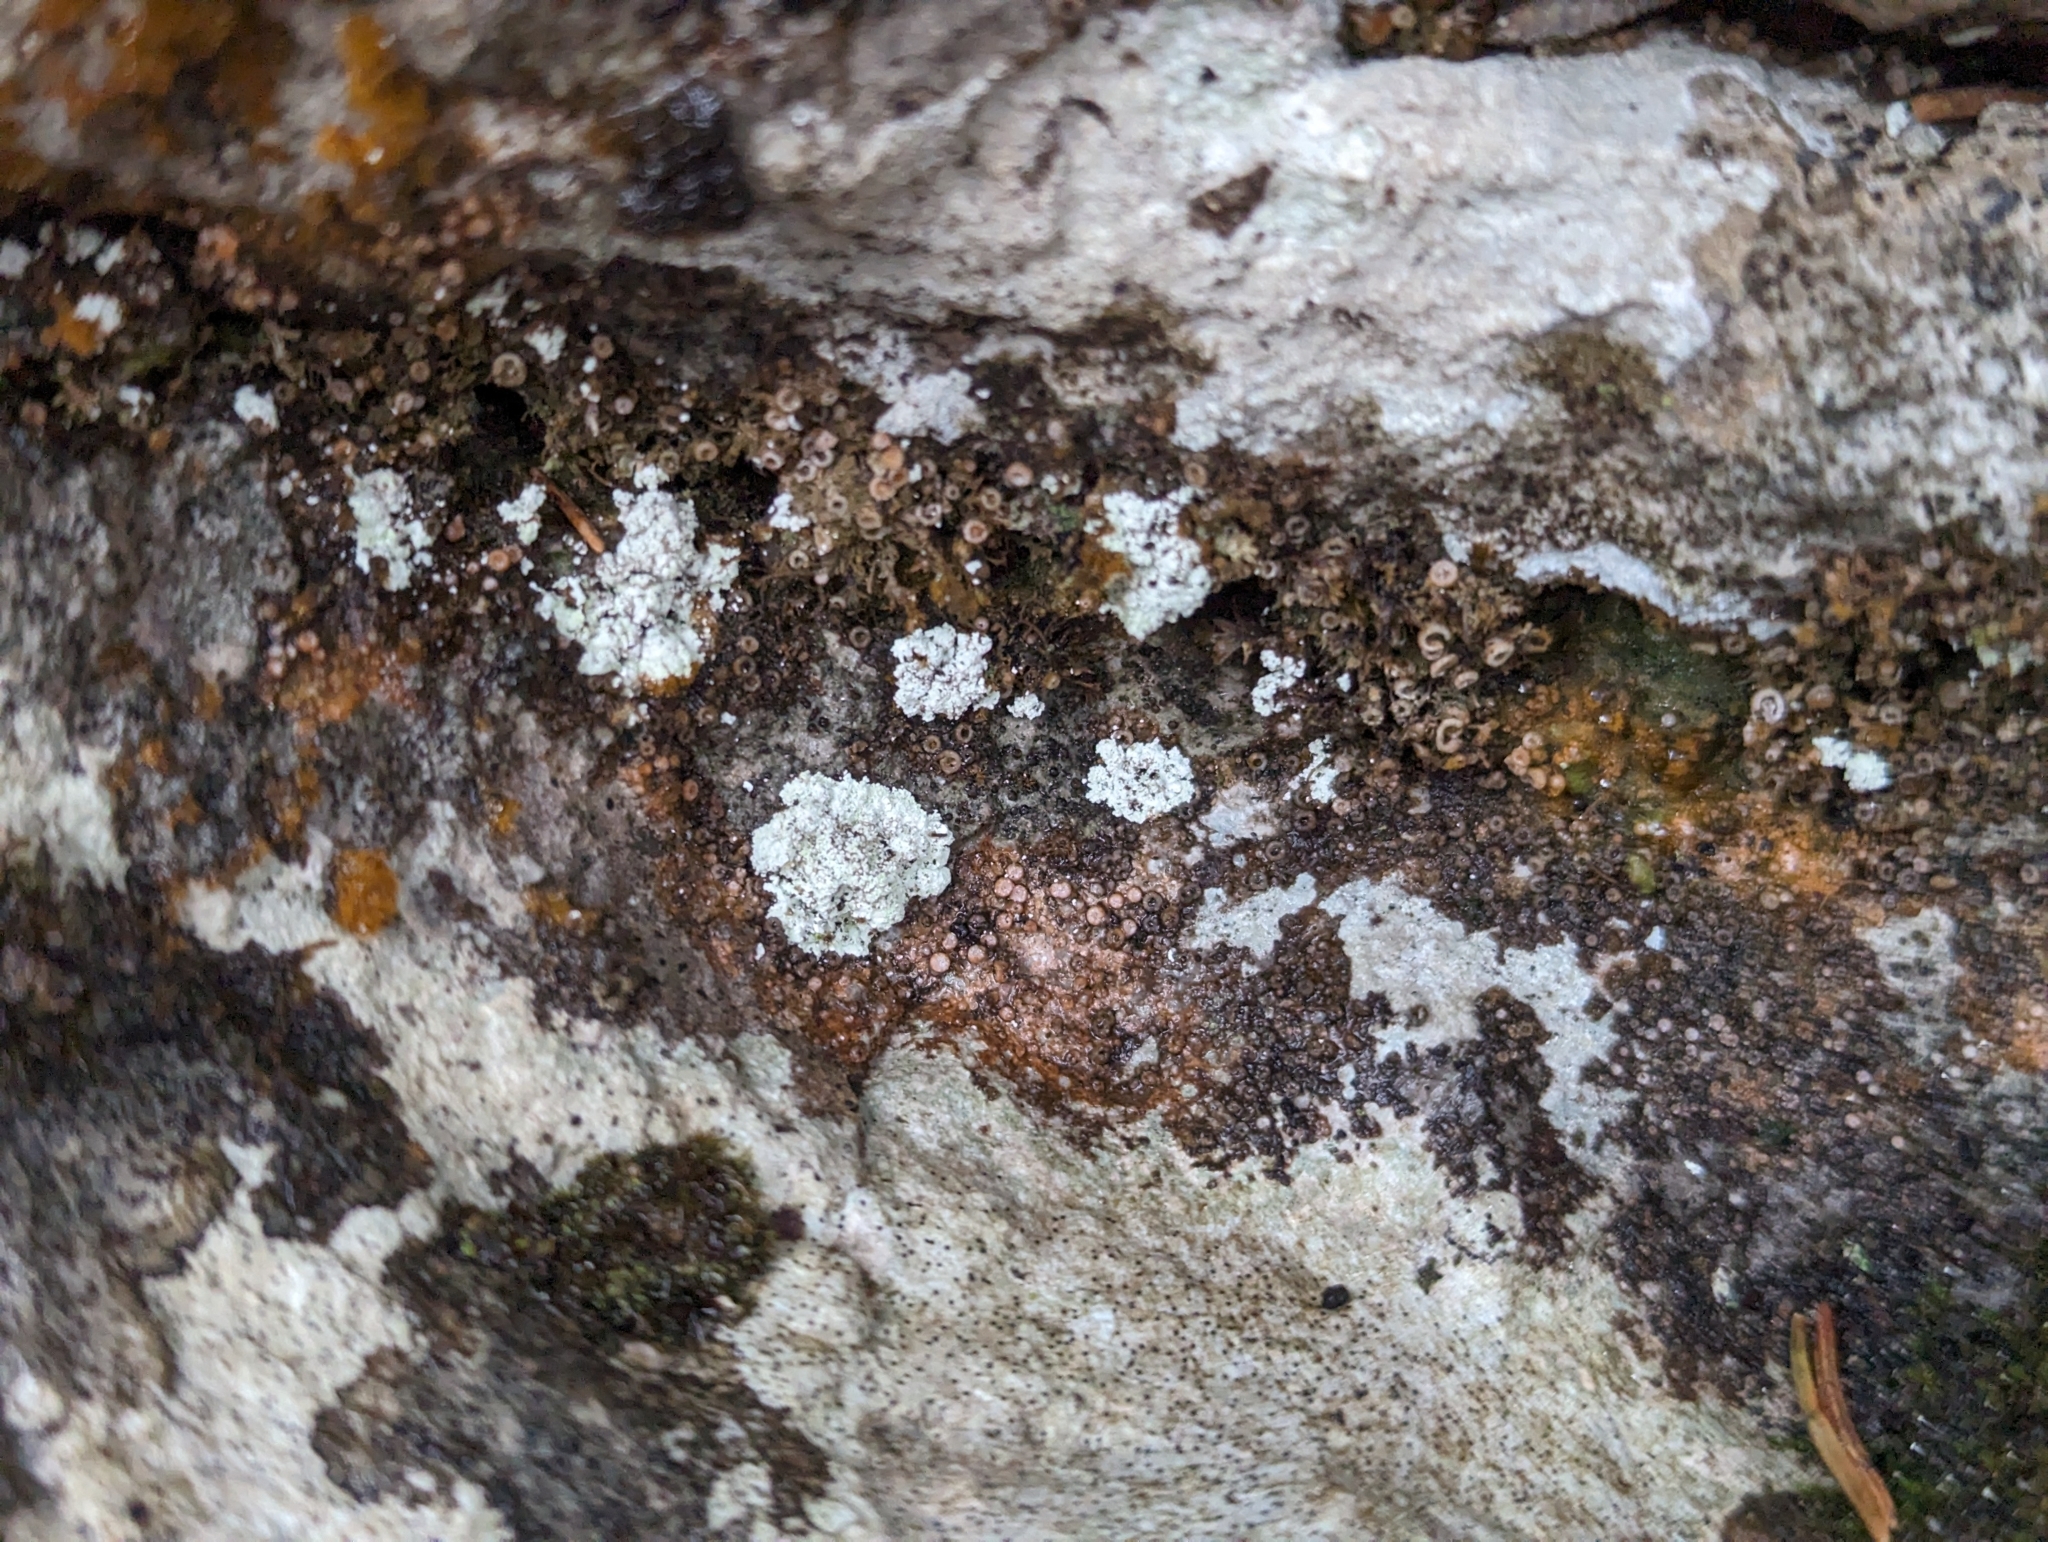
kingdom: Fungi
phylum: Ascomycota
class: Lecanoromycetes
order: Gyalectales
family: Gyalectaceae
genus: Gyalecta
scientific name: Gyalecta jenensis
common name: Rock dimple lichen
